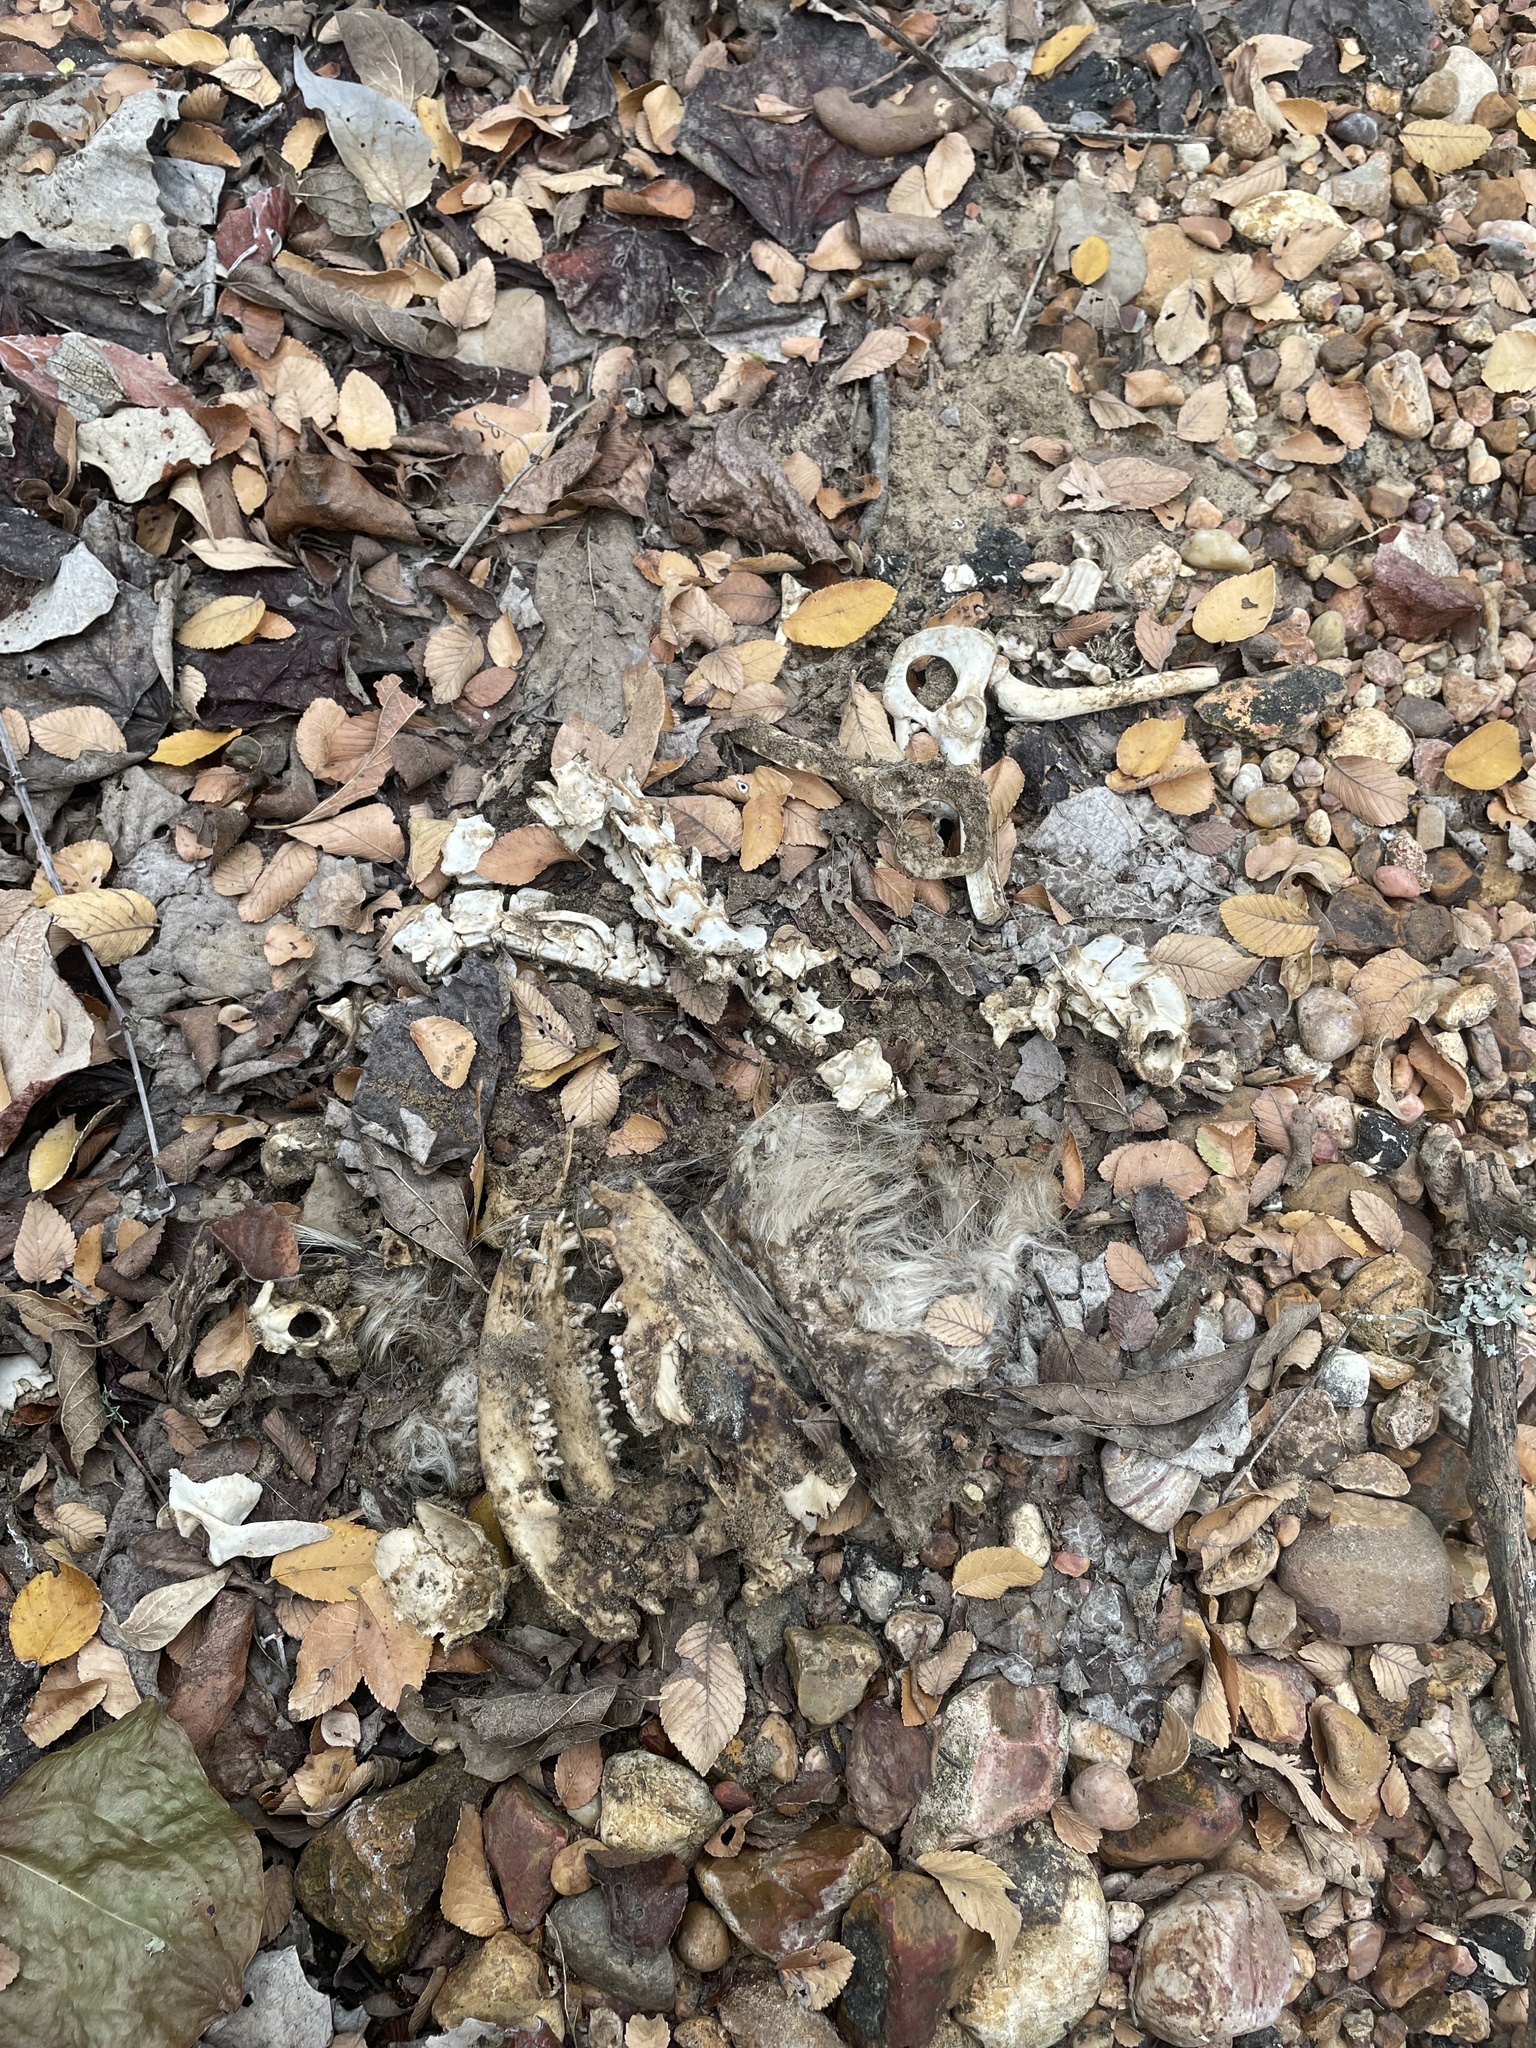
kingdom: Animalia
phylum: Chordata
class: Mammalia
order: Didelphimorphia
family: Didelphidae
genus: Didelphis
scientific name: Didelphis virginiana
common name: Virginia opossum
